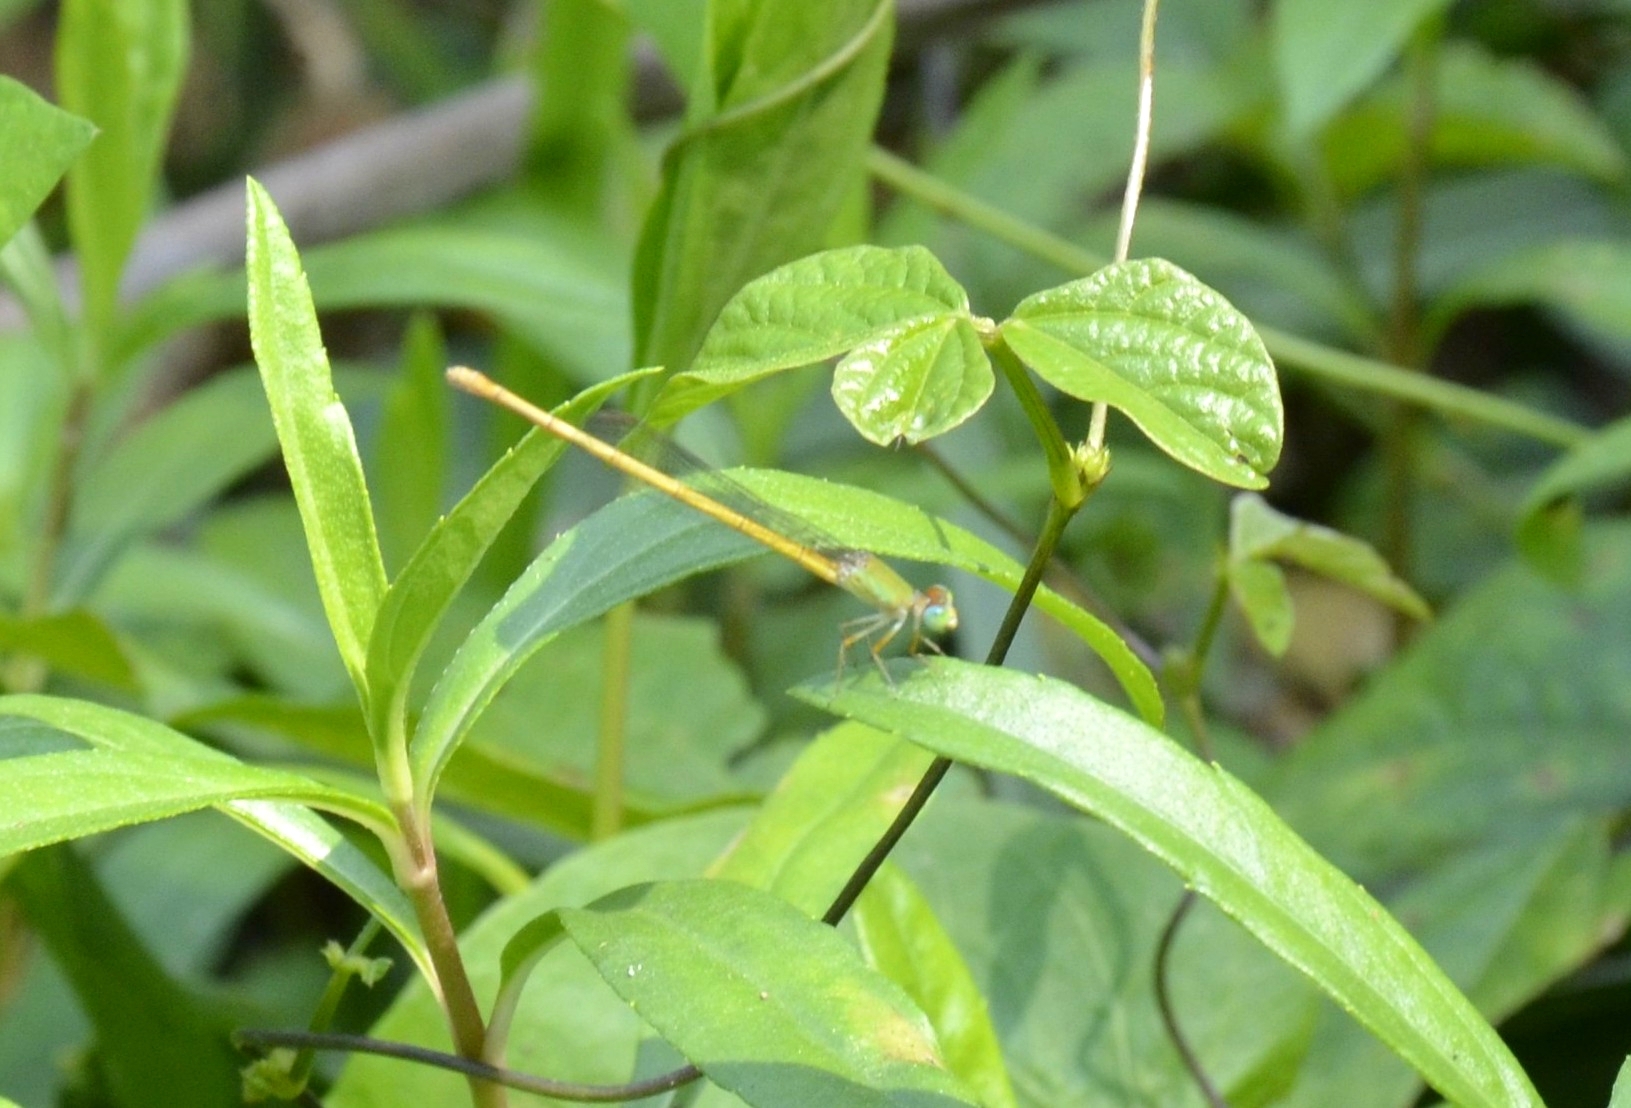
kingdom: Animalia
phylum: Arthropoda
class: Insecta
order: Odonata
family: Coenagrionidae
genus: Ceriagrion
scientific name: Ceriagrion coromandelianum
